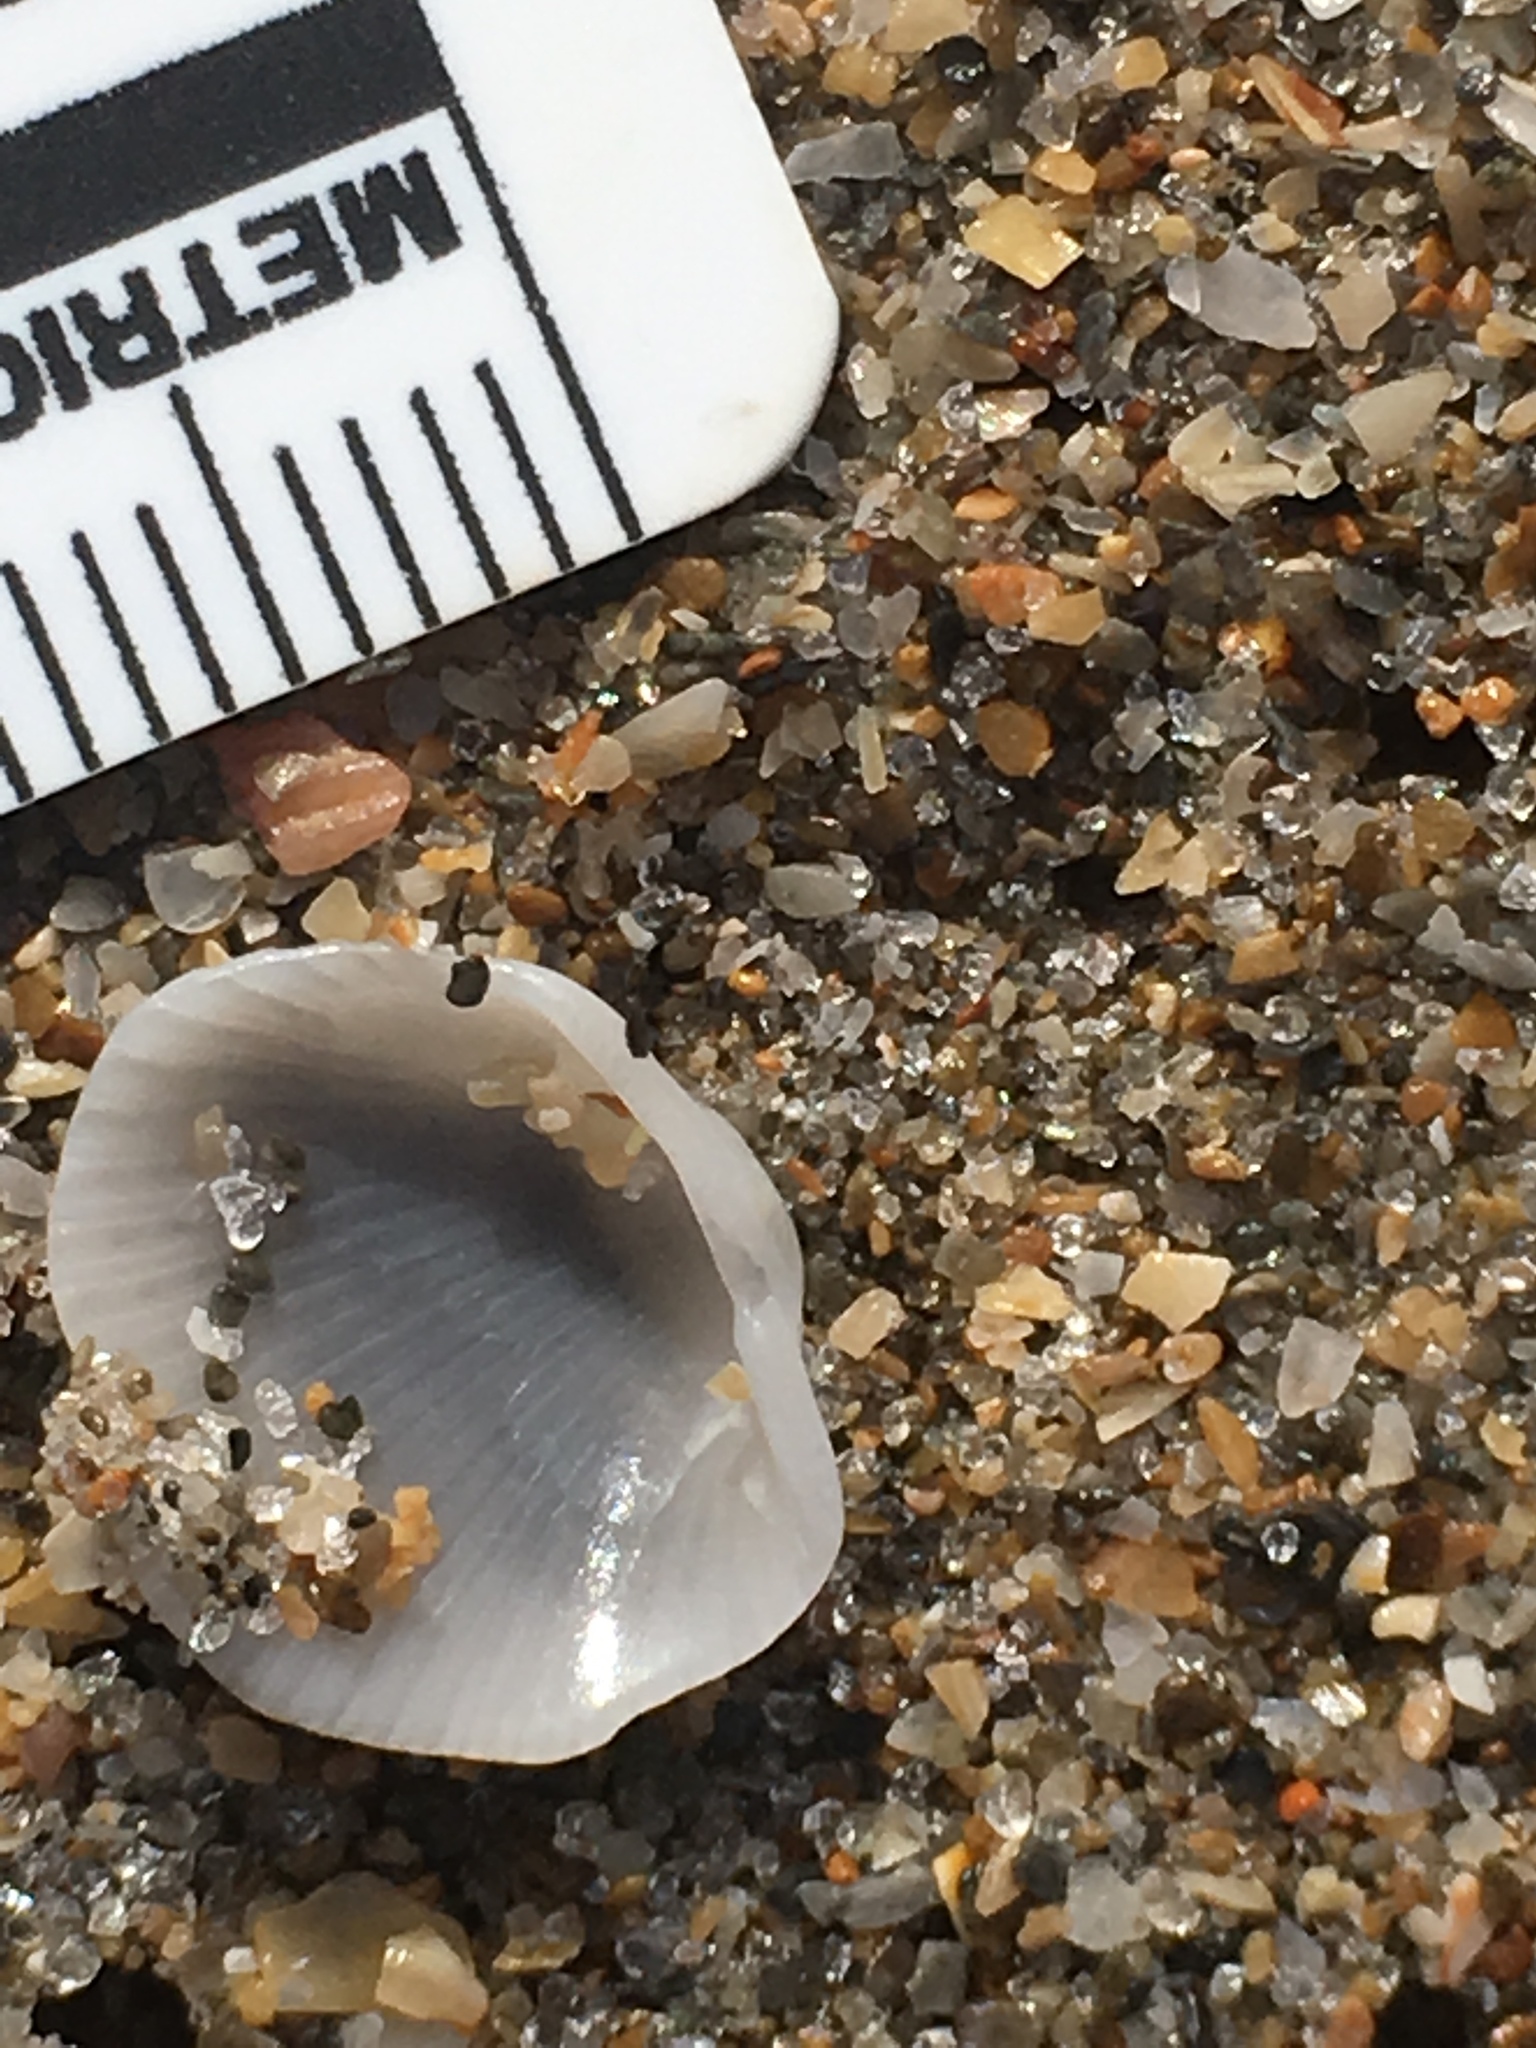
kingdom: Animalia
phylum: Mollusca
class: Bivalvia
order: Arcida
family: Arcidae
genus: Lunarca
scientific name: Lunarca ovalis
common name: Blood ark
